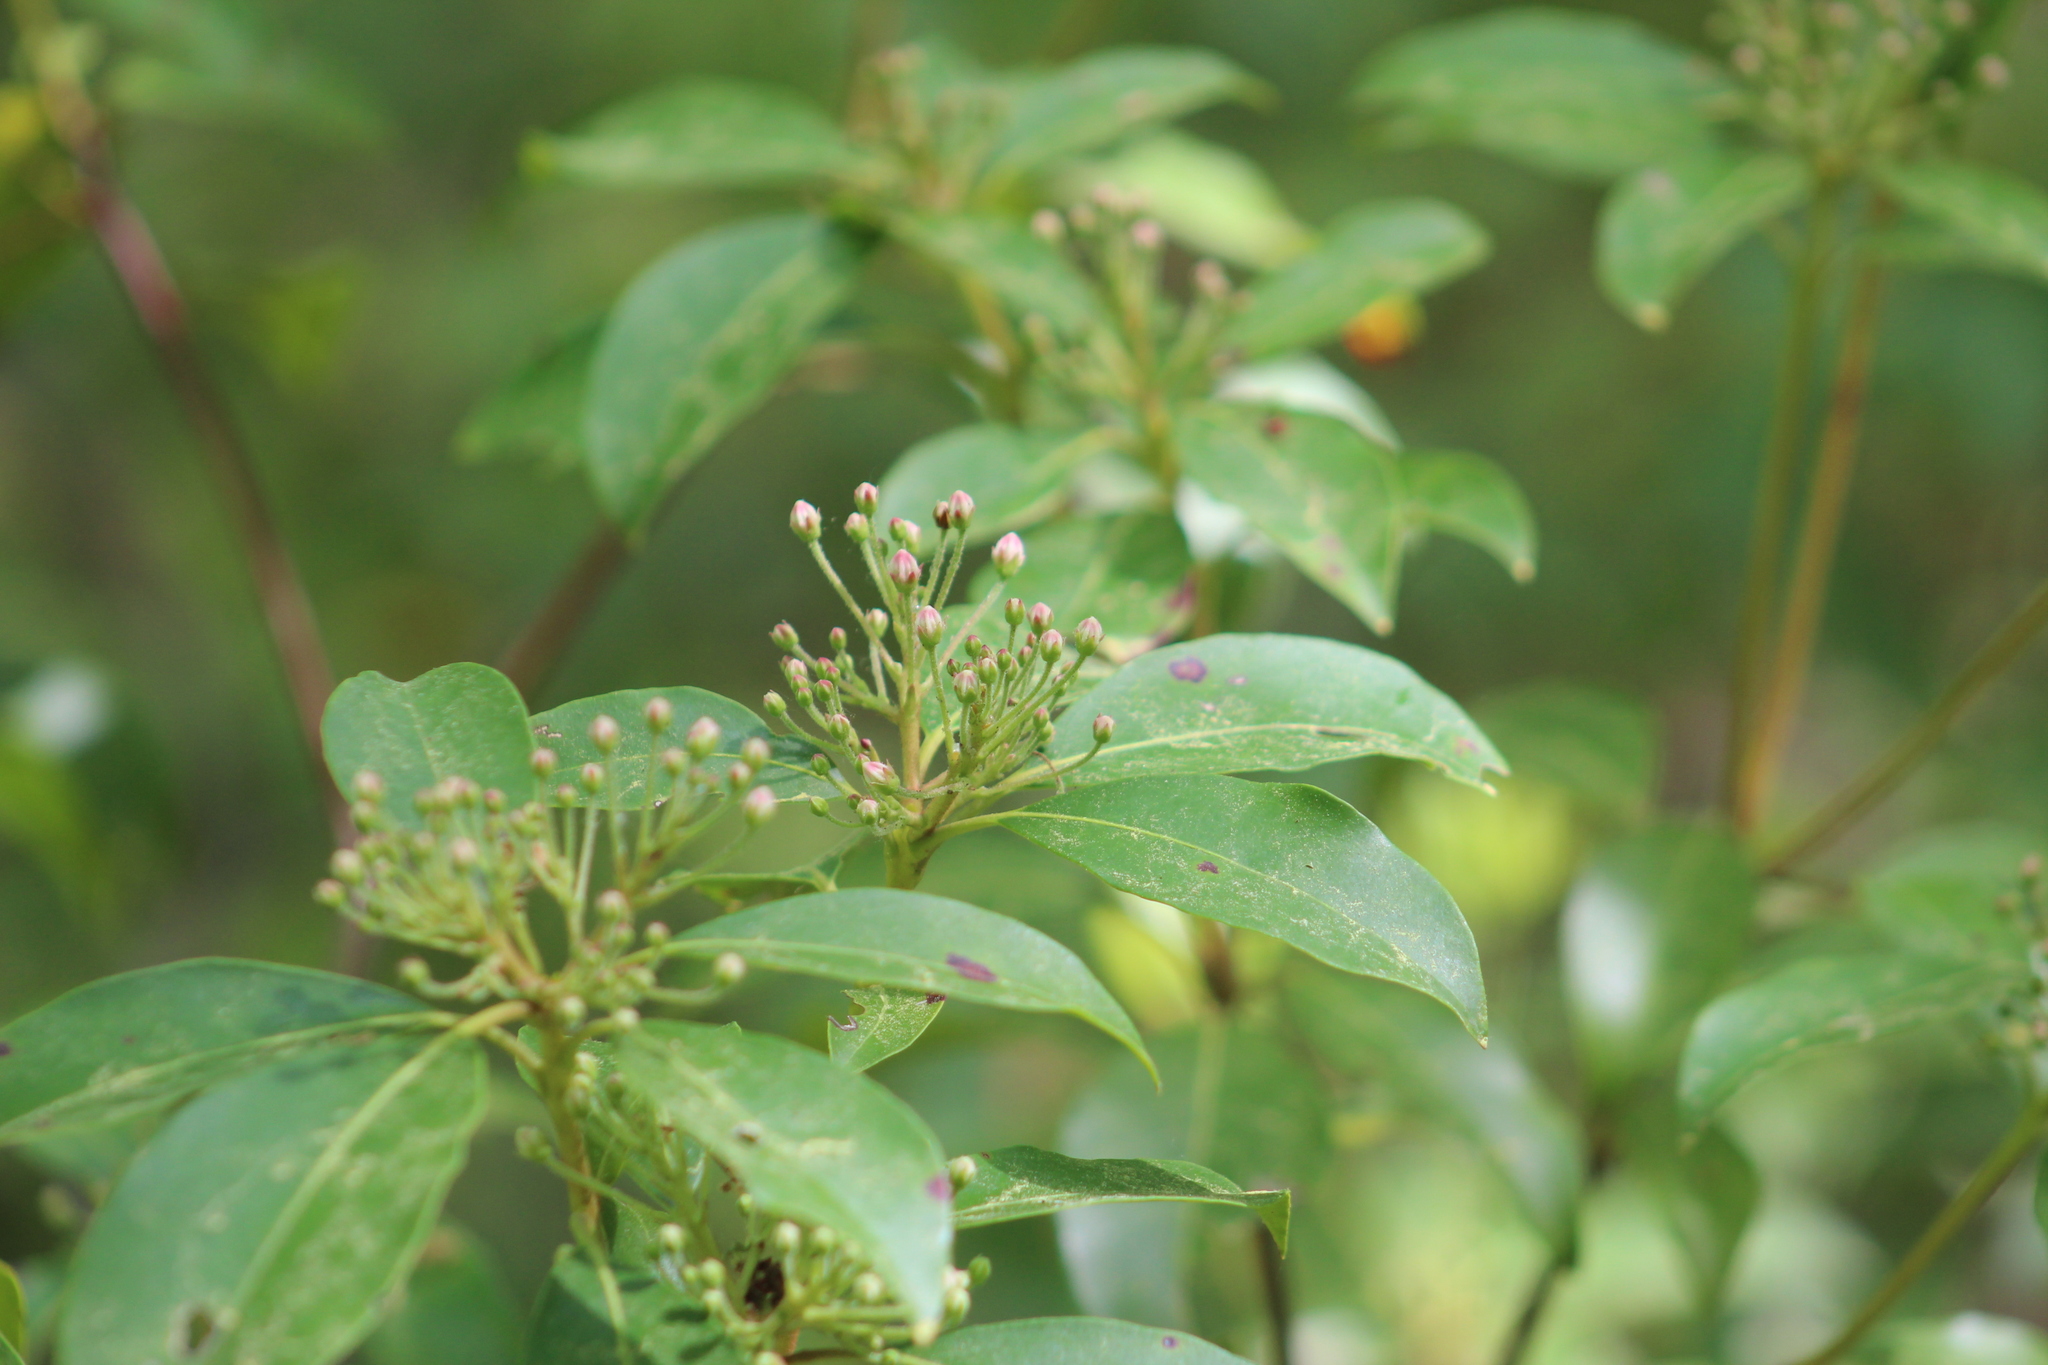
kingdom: Plantae
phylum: Tracheophyta
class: Magnoliopsida
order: Ericales
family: Ericaceae
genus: Kalmia
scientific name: Kalmia latifolia
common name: Mountain-laurel
